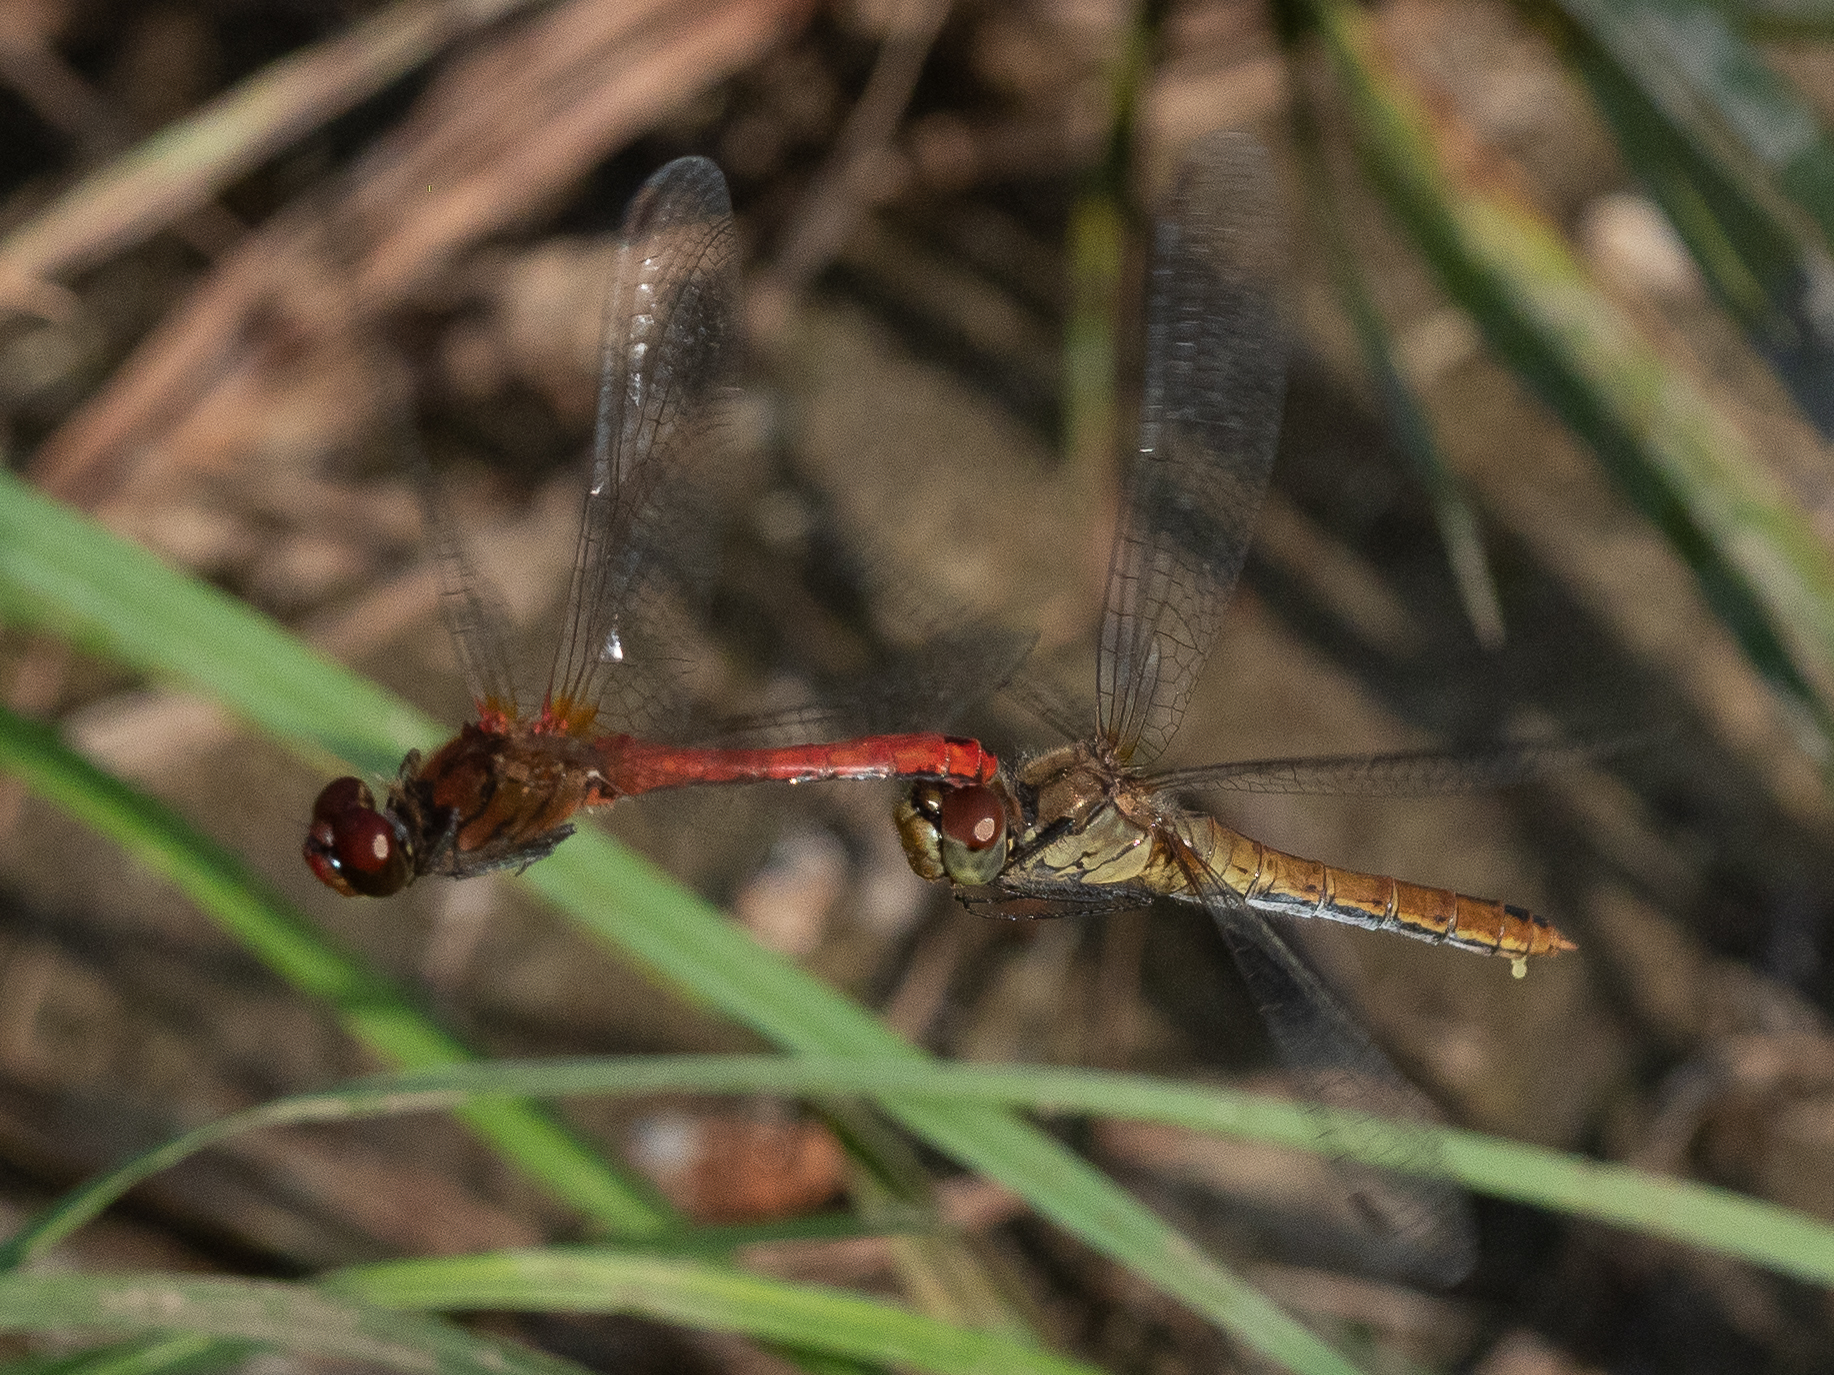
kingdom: Animalia
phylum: Arthropoda
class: Insecta
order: Odonata
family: Libellulidae
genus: Sympetrum
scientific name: Sympetrum sanguineum
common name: Ruddy darter
